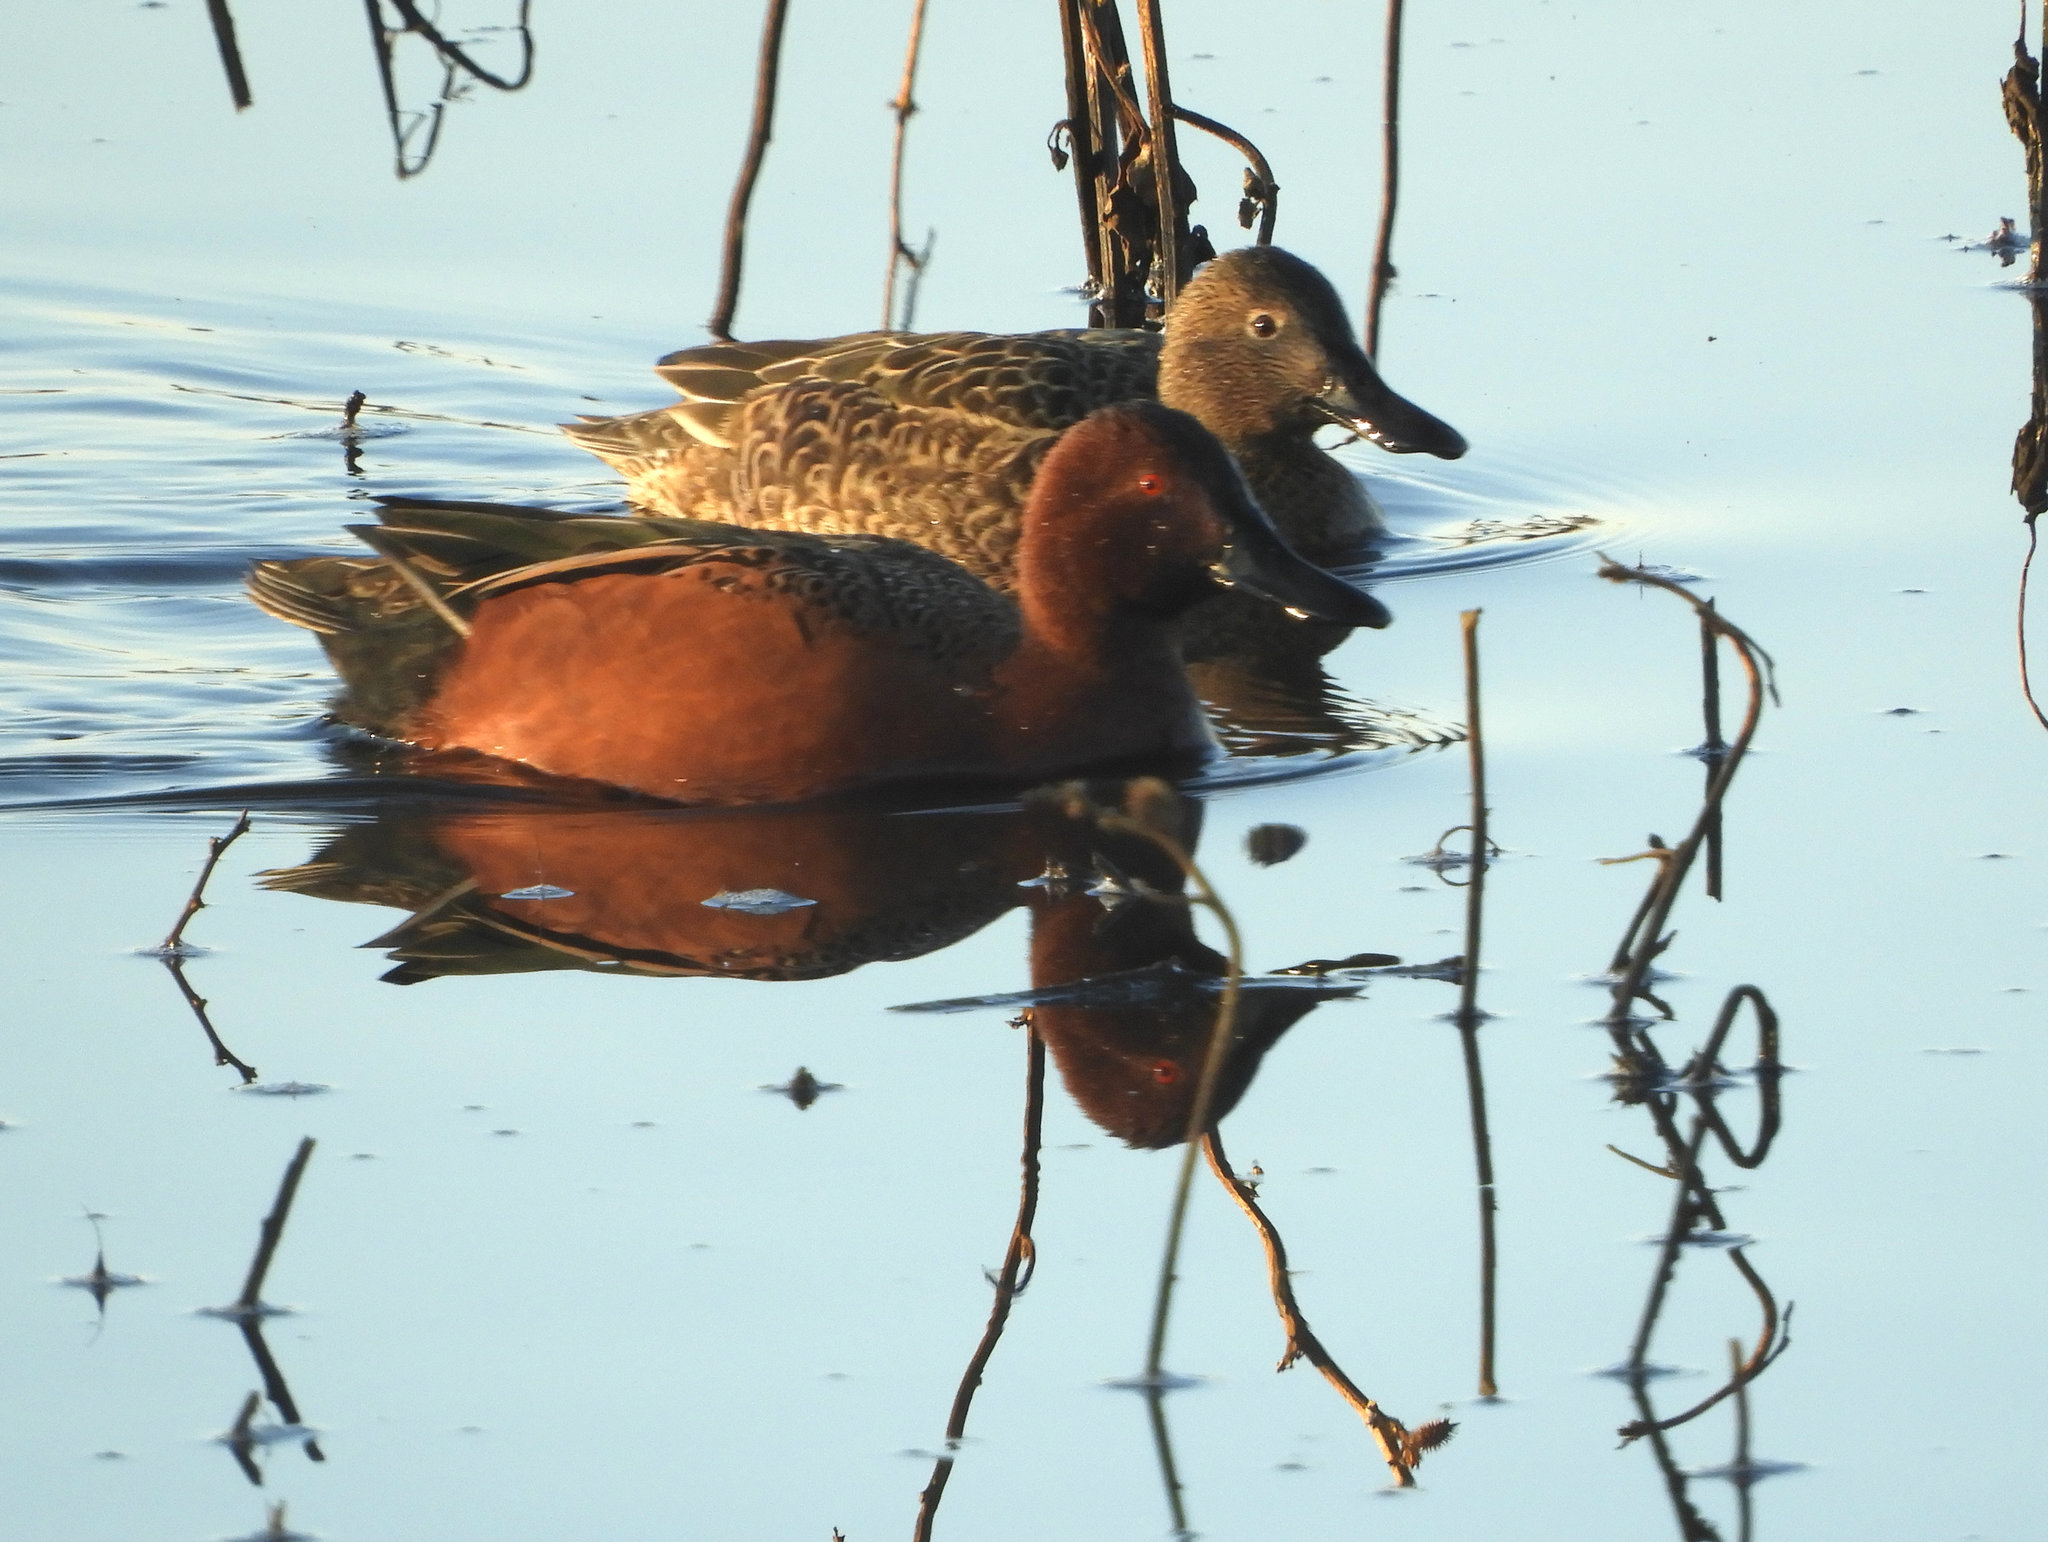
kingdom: Animalia
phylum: Chordata
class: Aves
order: Anseriformes
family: Anatidae
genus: Spatula
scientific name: Spatula cyanoptera
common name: Cinnamon teal
